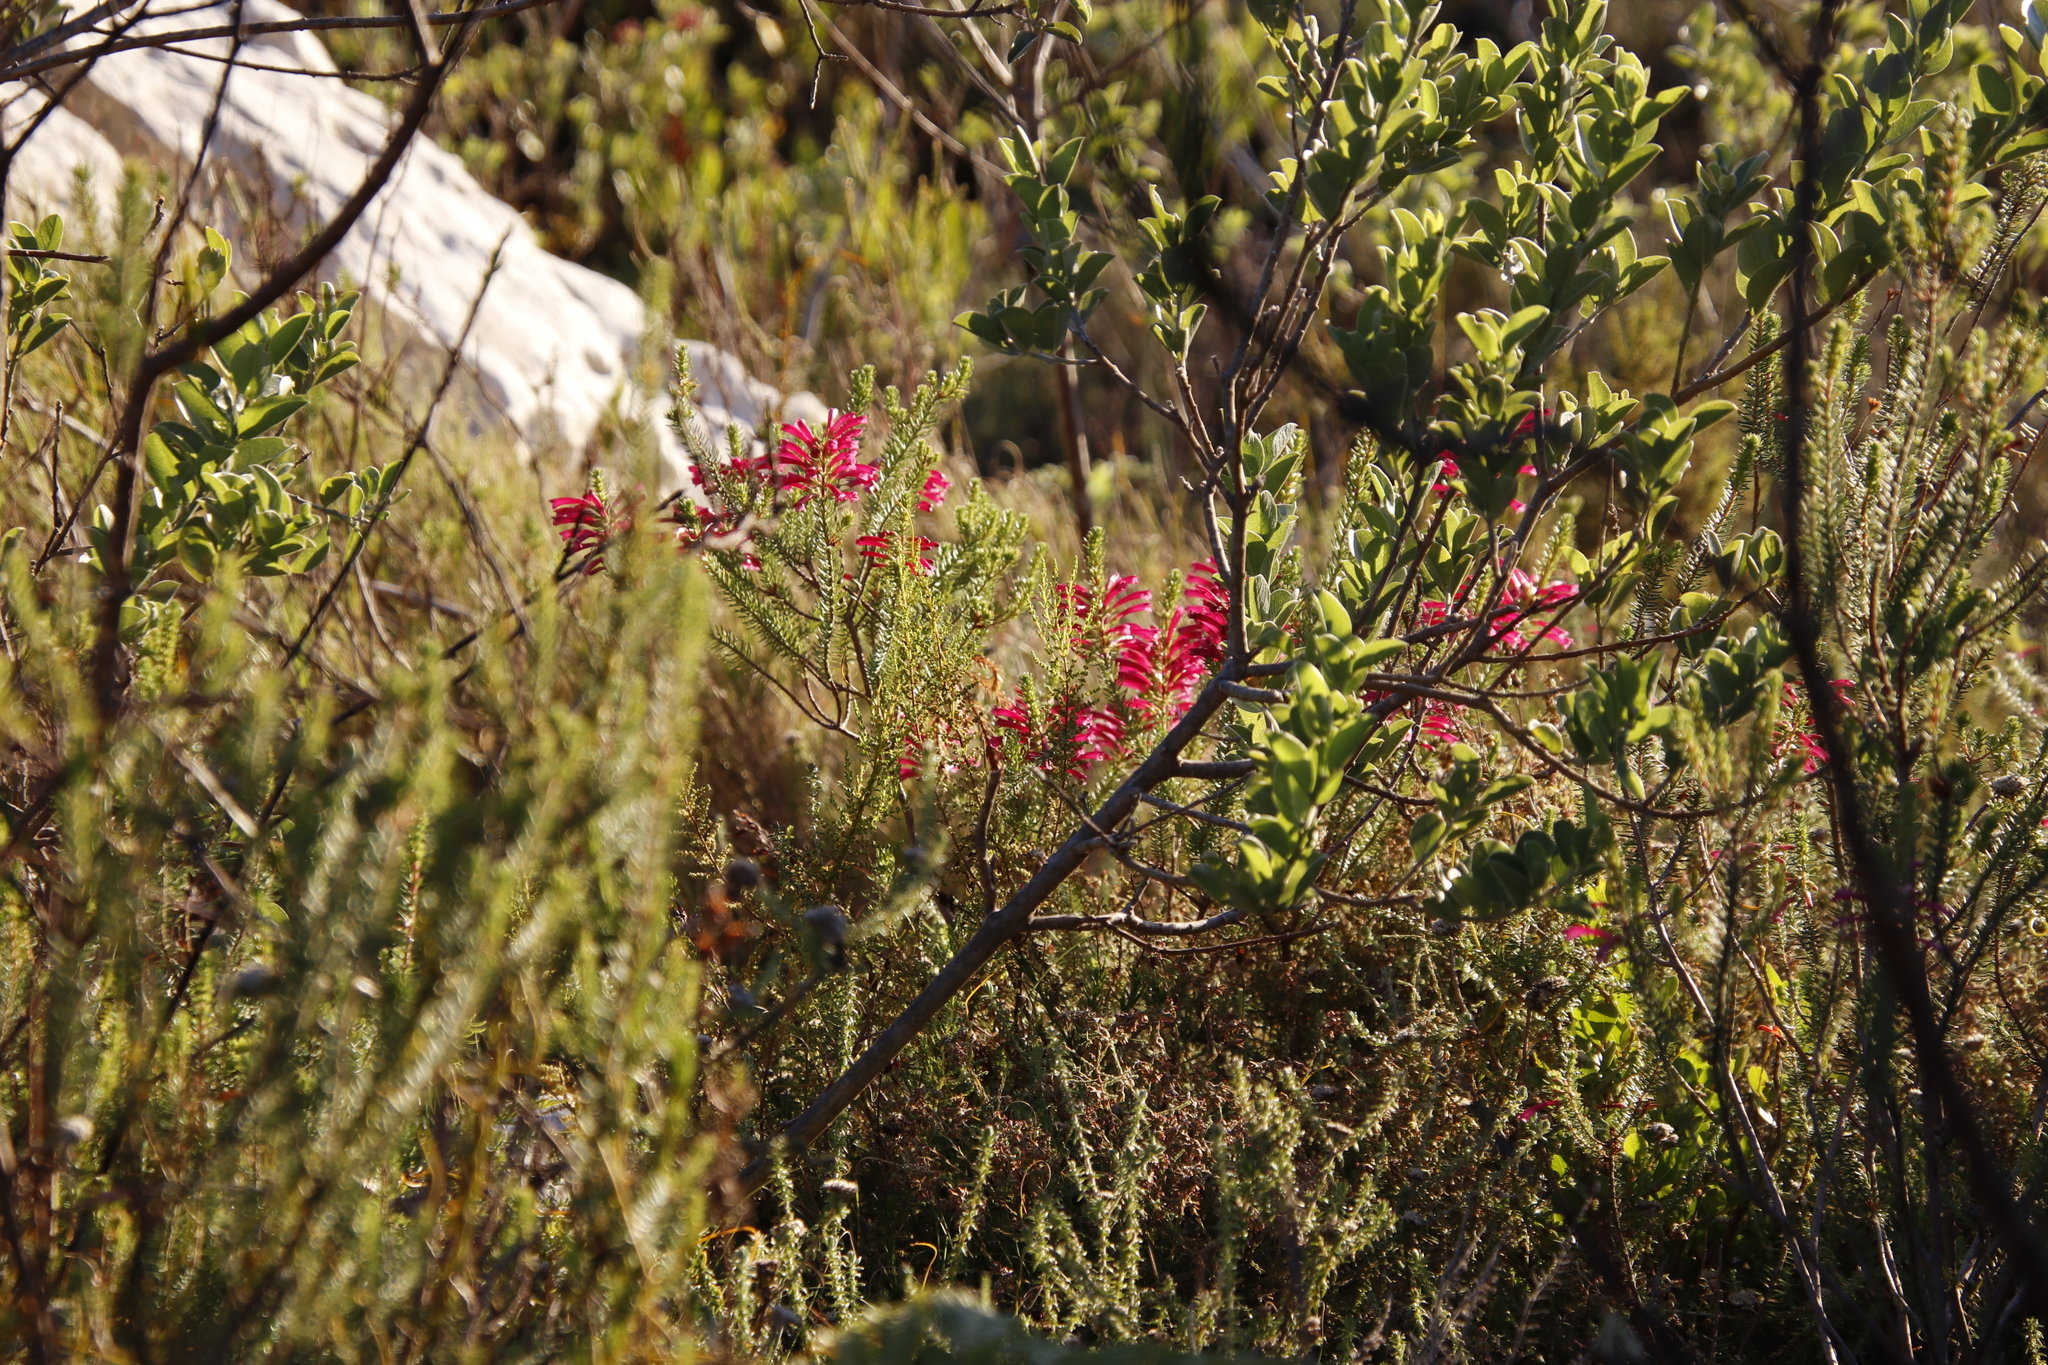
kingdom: Plantae
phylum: Tracheophyta
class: Magnoliopsida
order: Ericales
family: Ericaceae
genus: Erica
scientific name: Erica abietina
